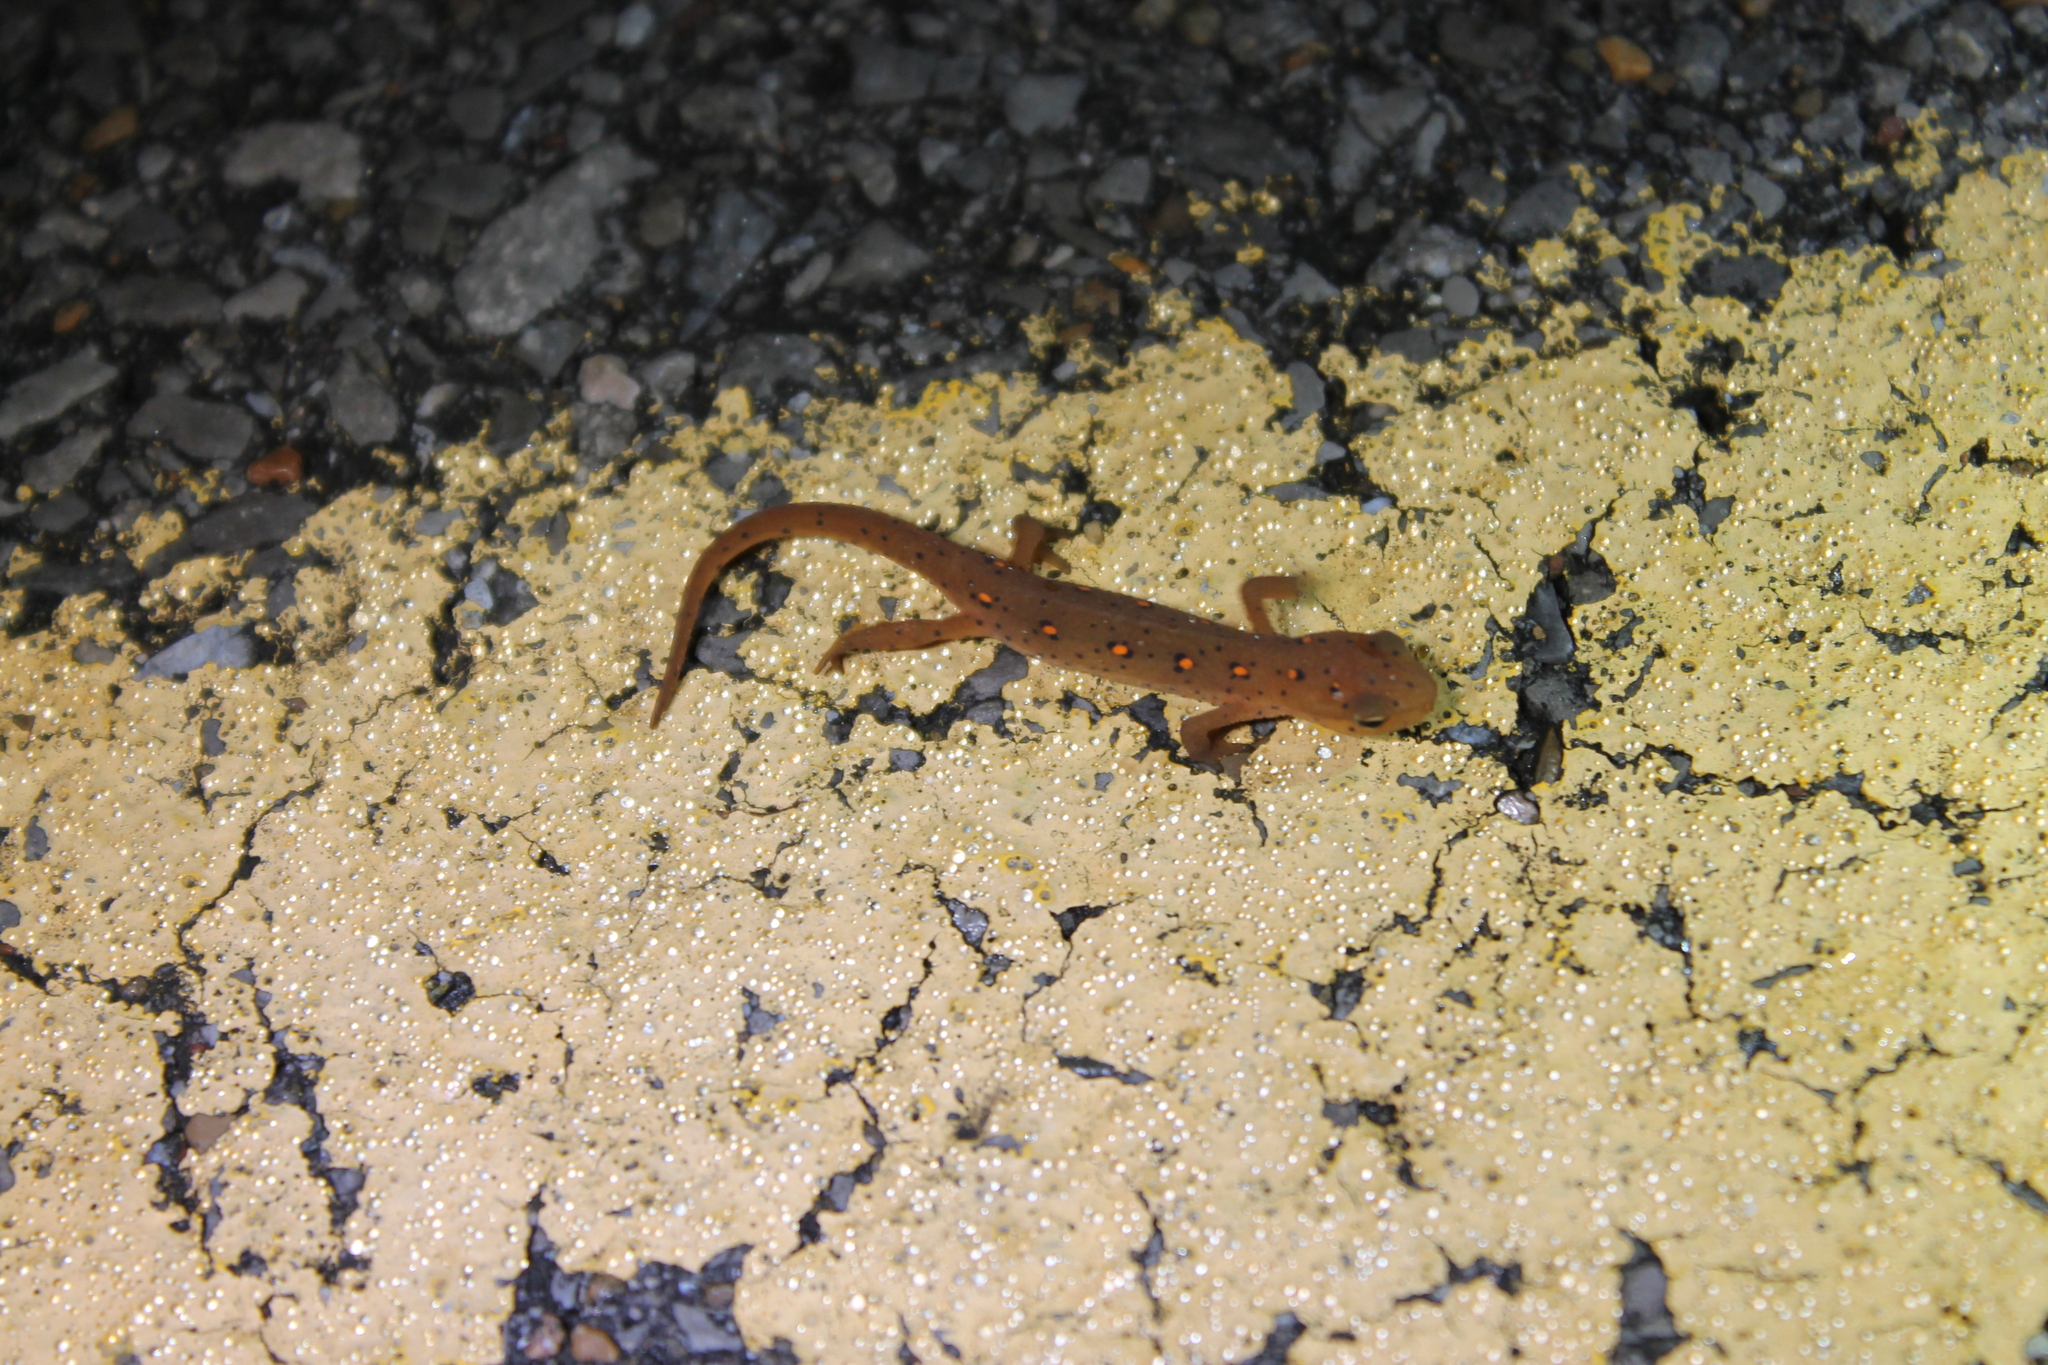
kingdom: Animalia
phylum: Chordata
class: Amphibia
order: Caudata
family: Salamandridae
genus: Notophthalmus
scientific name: Notophthalmus viridescens
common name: Eastern newt
